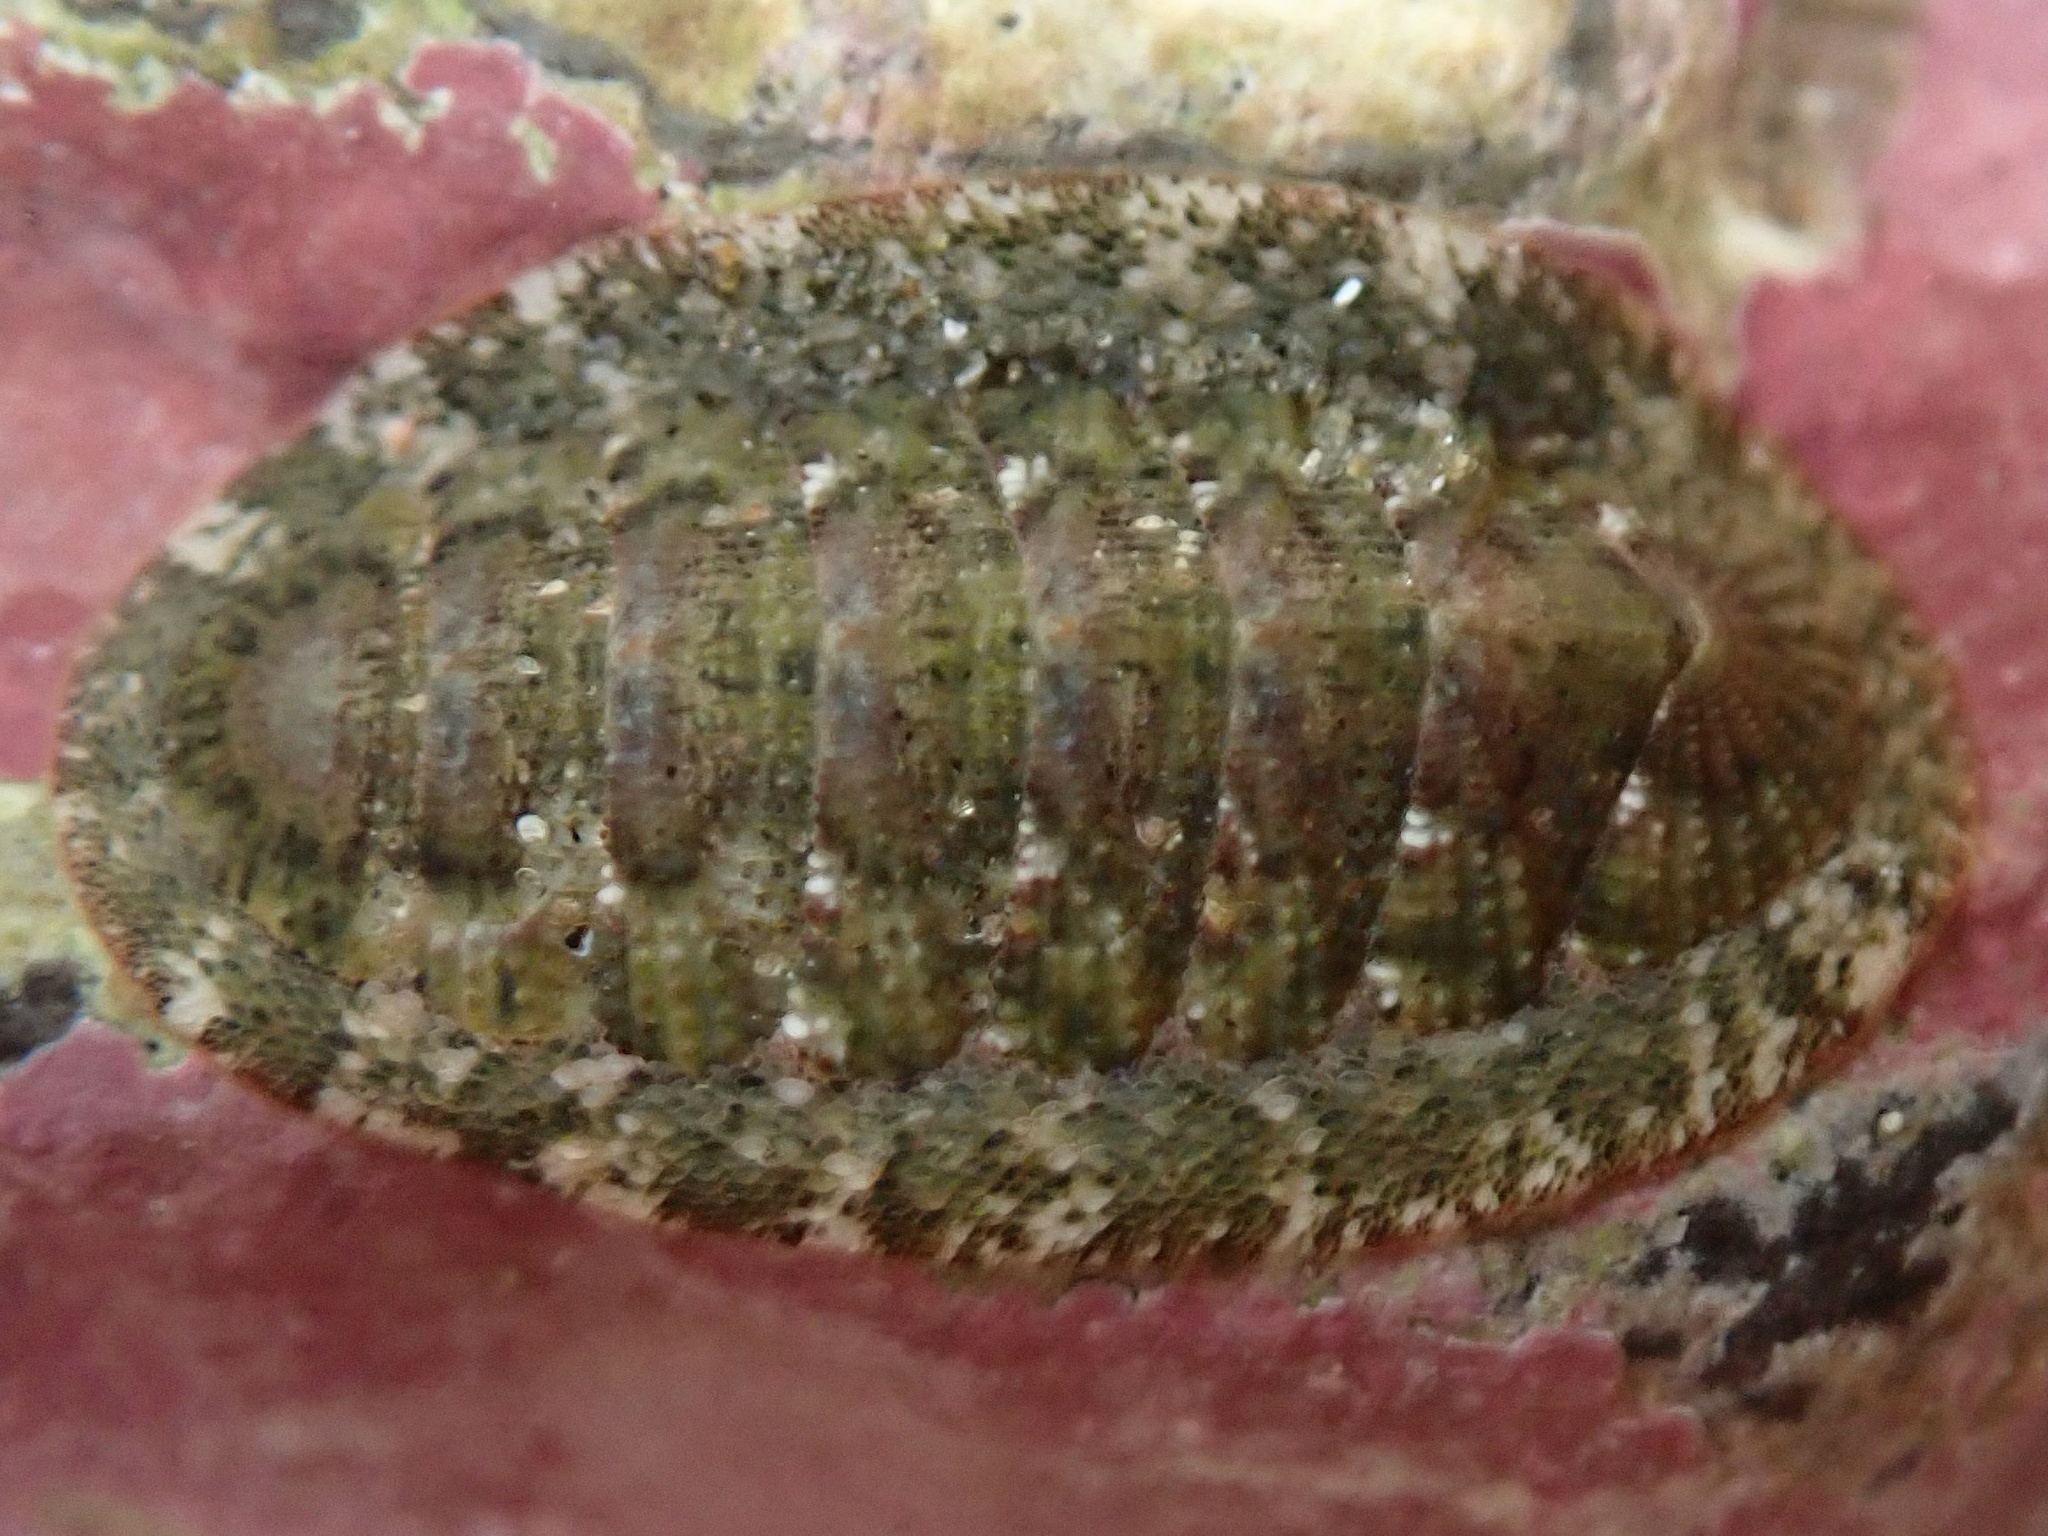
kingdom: Animalia
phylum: Mollusca
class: Polyplacophora
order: Chitonida
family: Ischnochitonidae
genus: Lepidozona
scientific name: Lepidozona pectinulata
